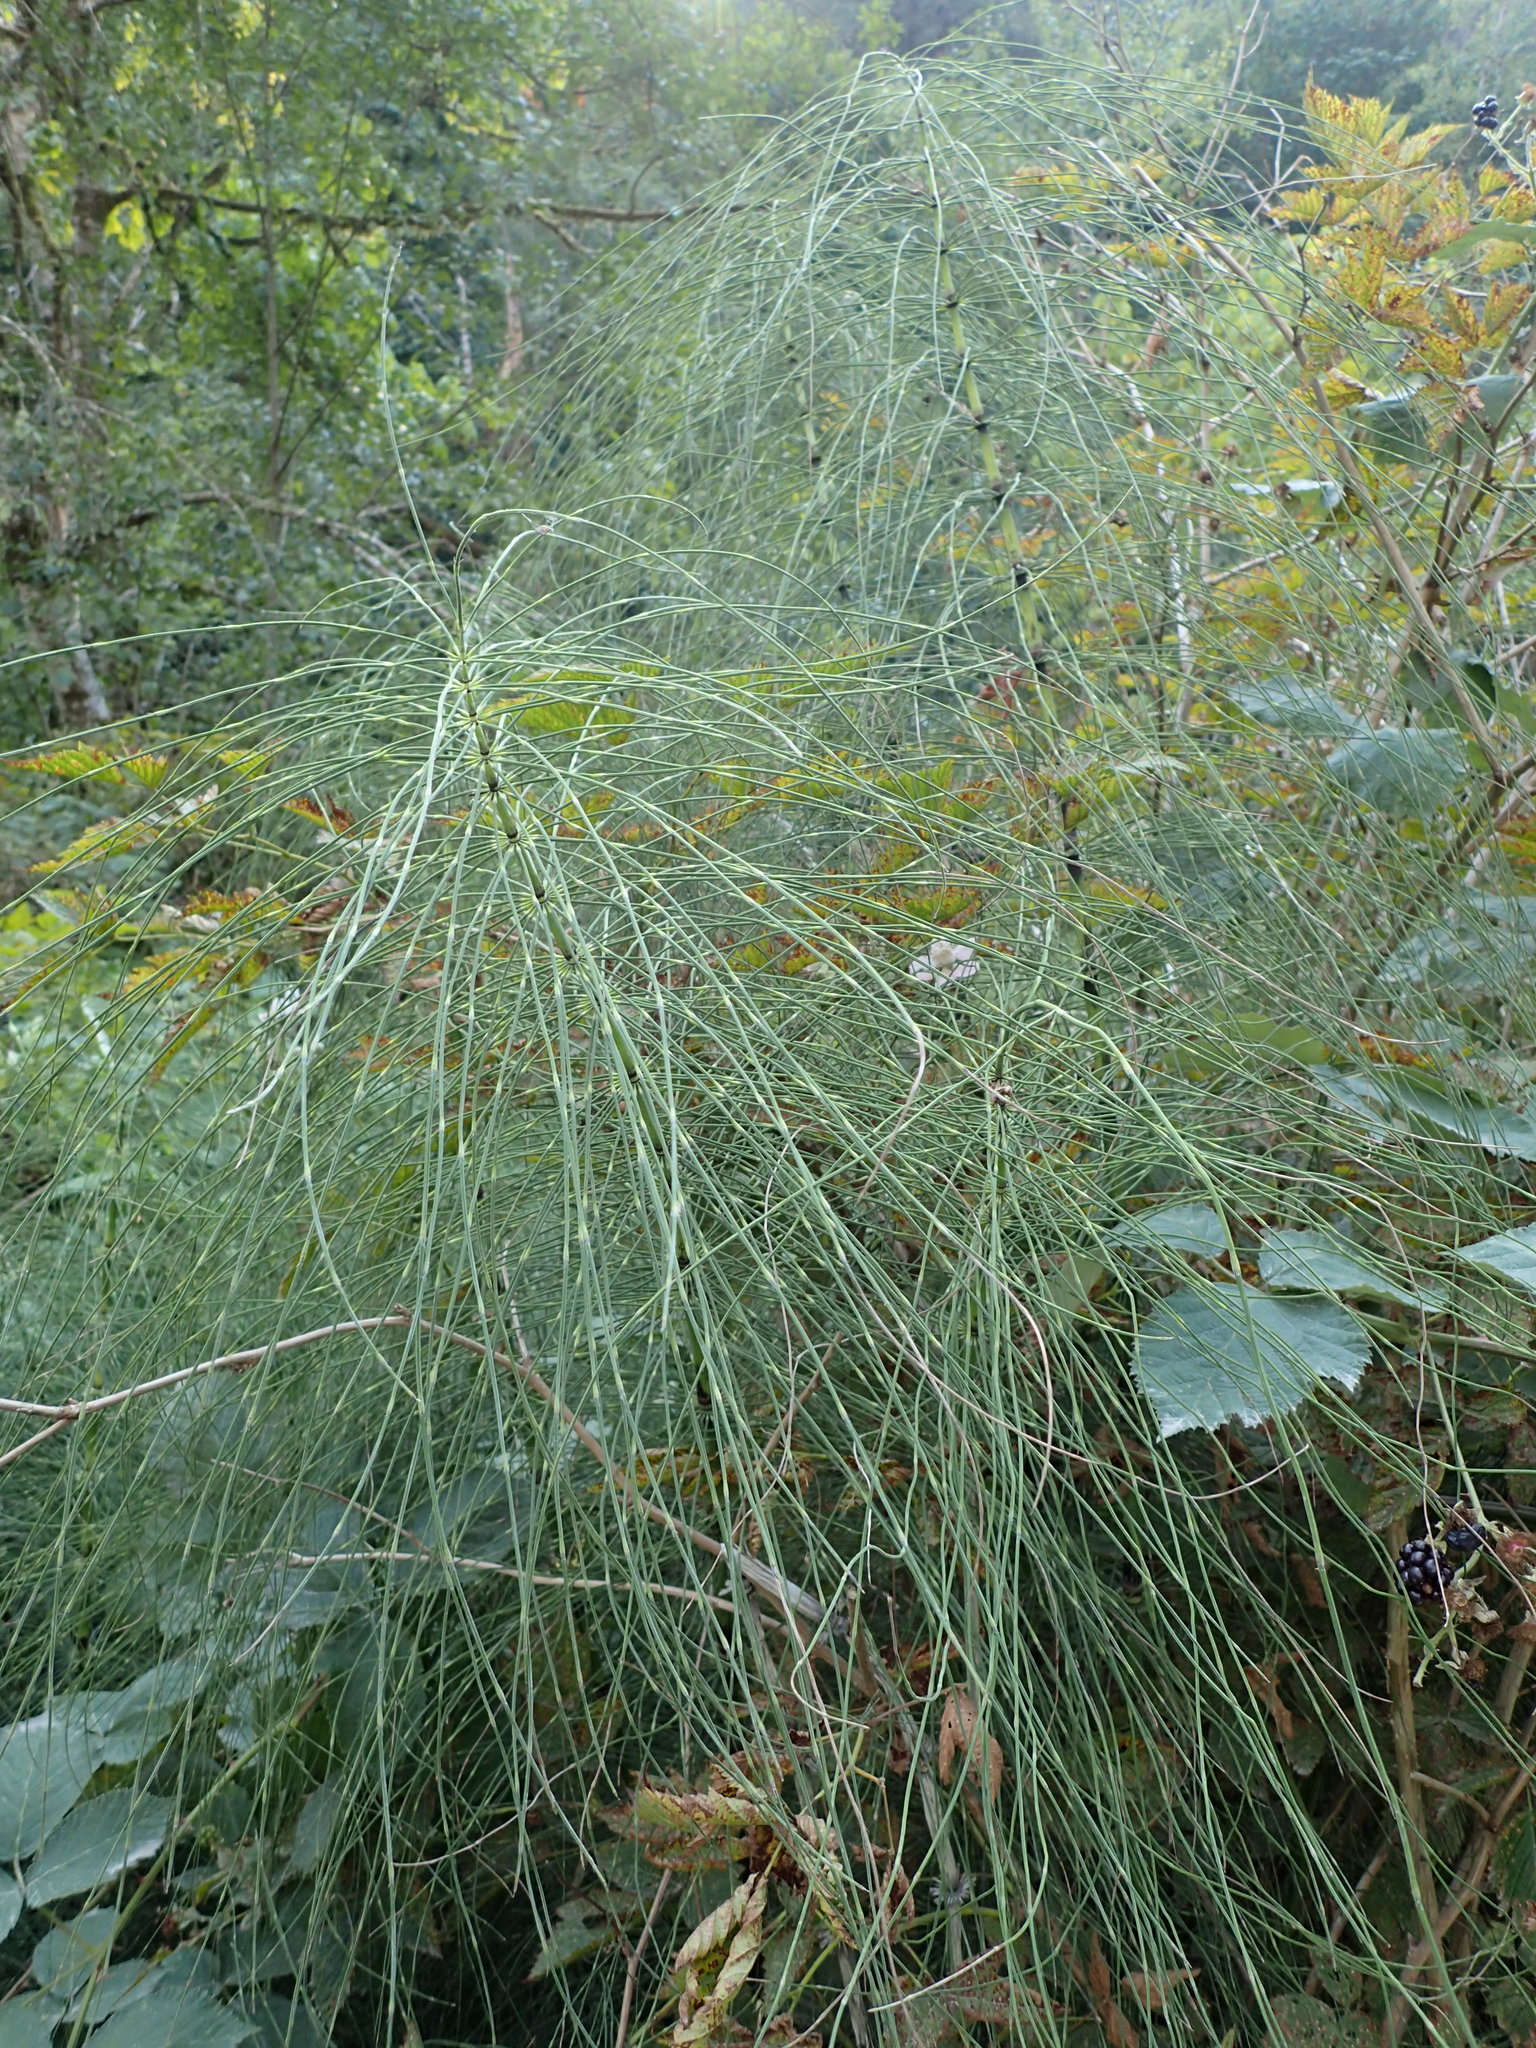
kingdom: Plantae
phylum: Tracheophyta
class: Polypodiopsida
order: Equisetales
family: Equisetaceae
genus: Equisetum
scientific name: Equisetum telmateia
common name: Great horsetail
